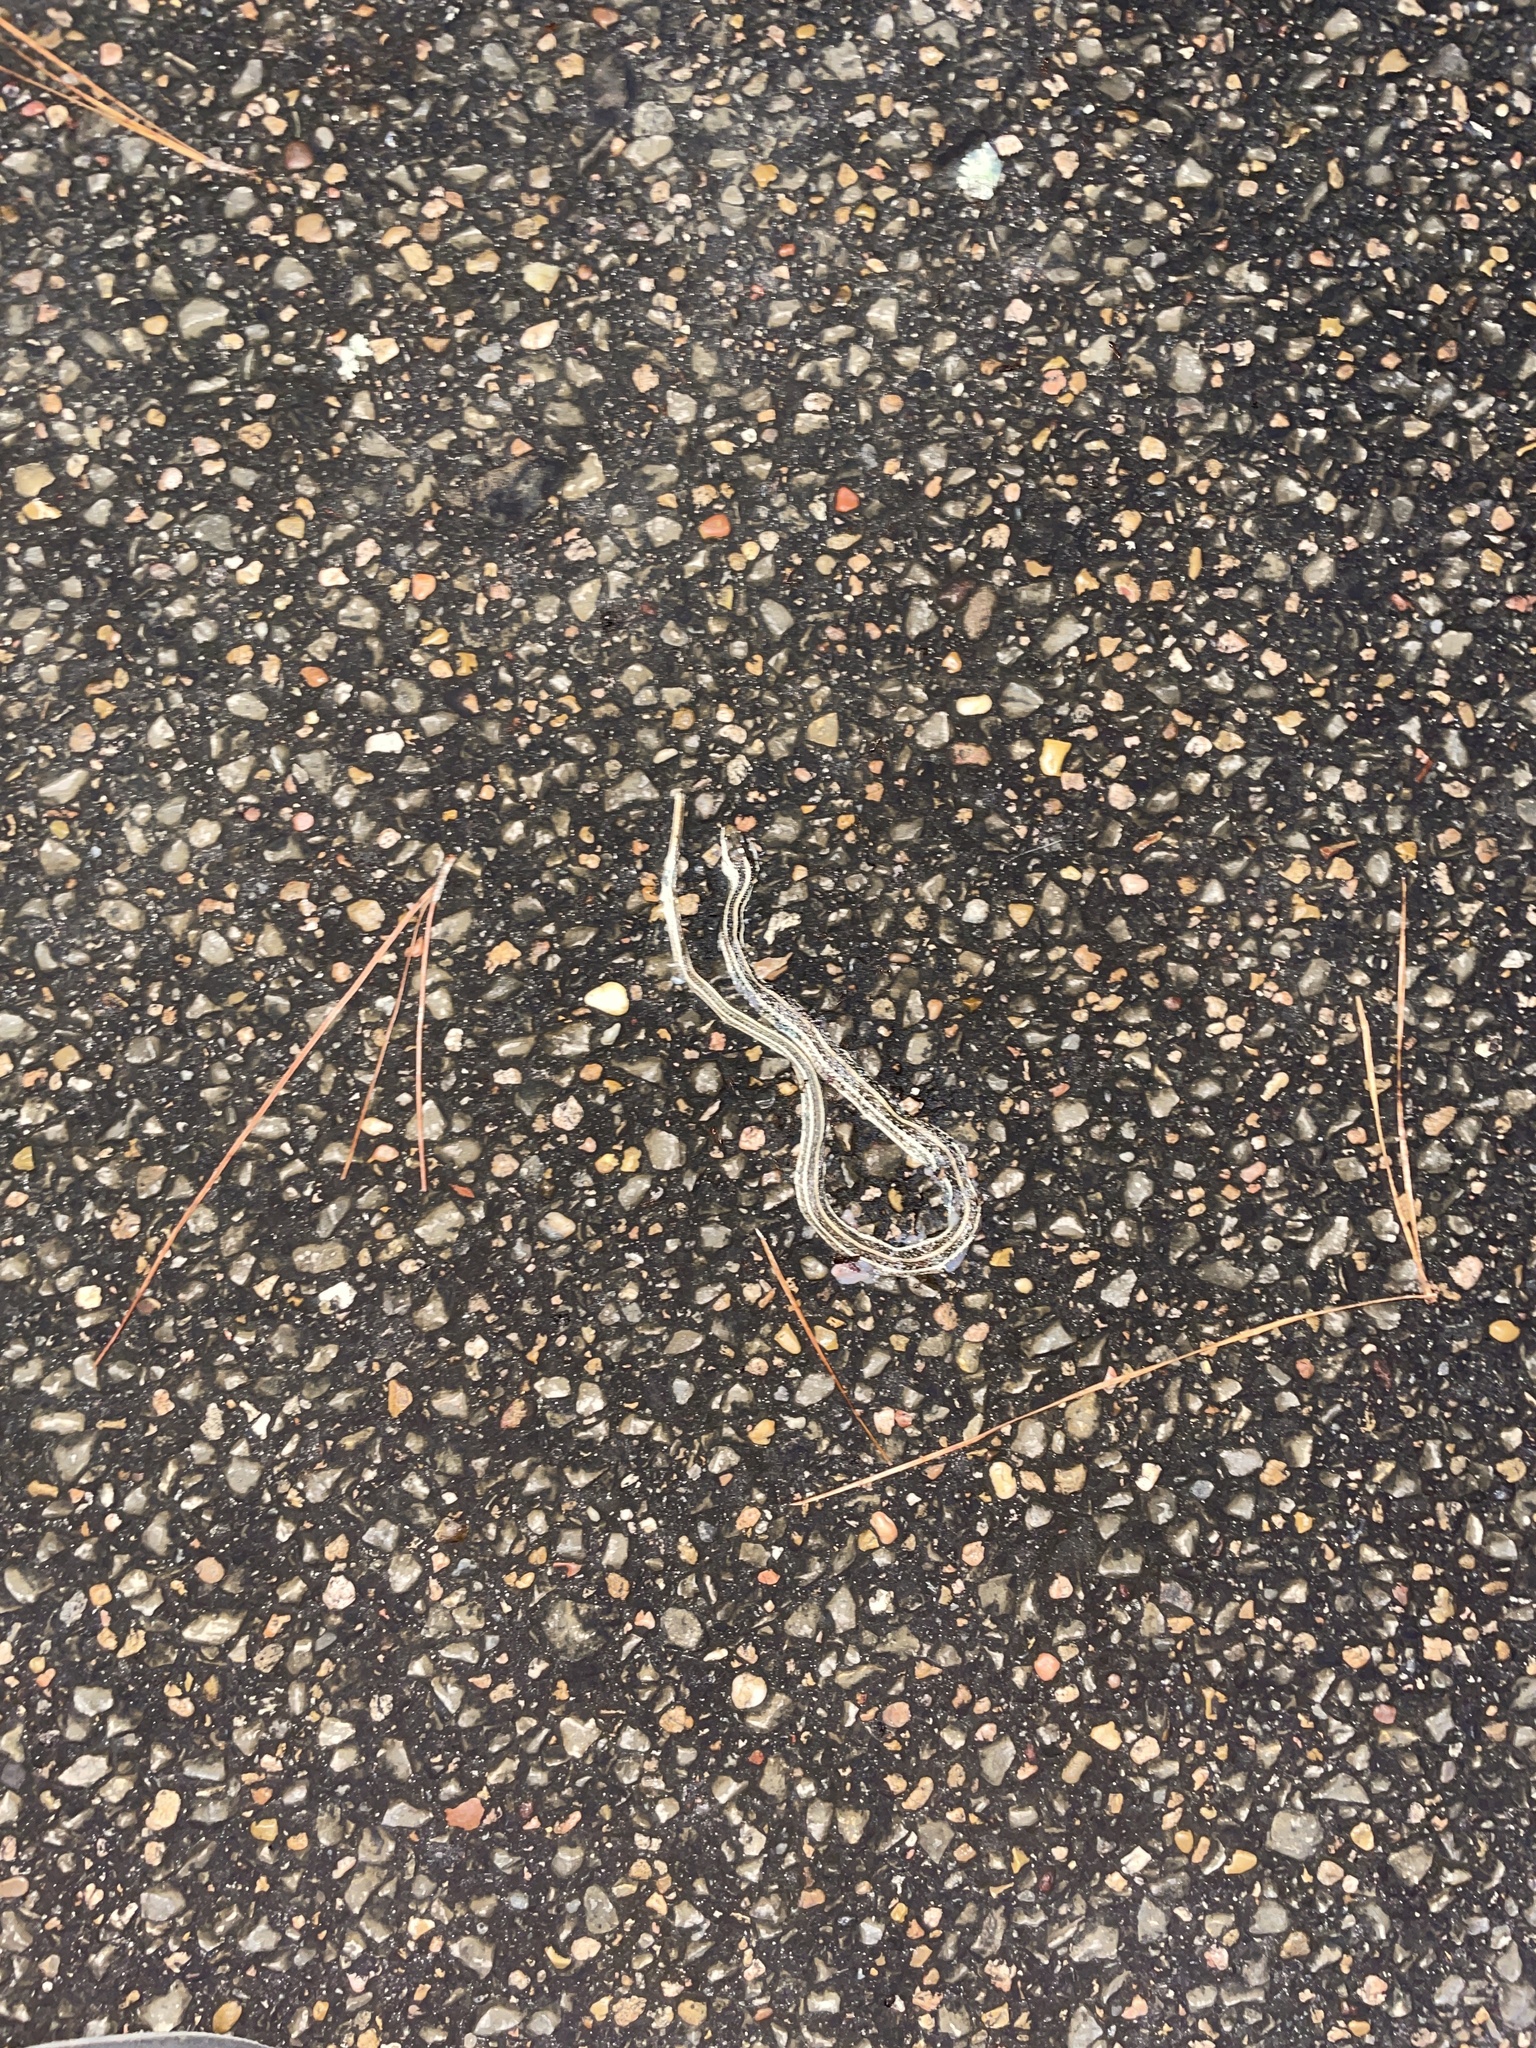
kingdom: Animalia
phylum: Chordata
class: Squamata
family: Colubridae
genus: Thamnophis
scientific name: Thamnophis proximus
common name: Western ribbon snake
